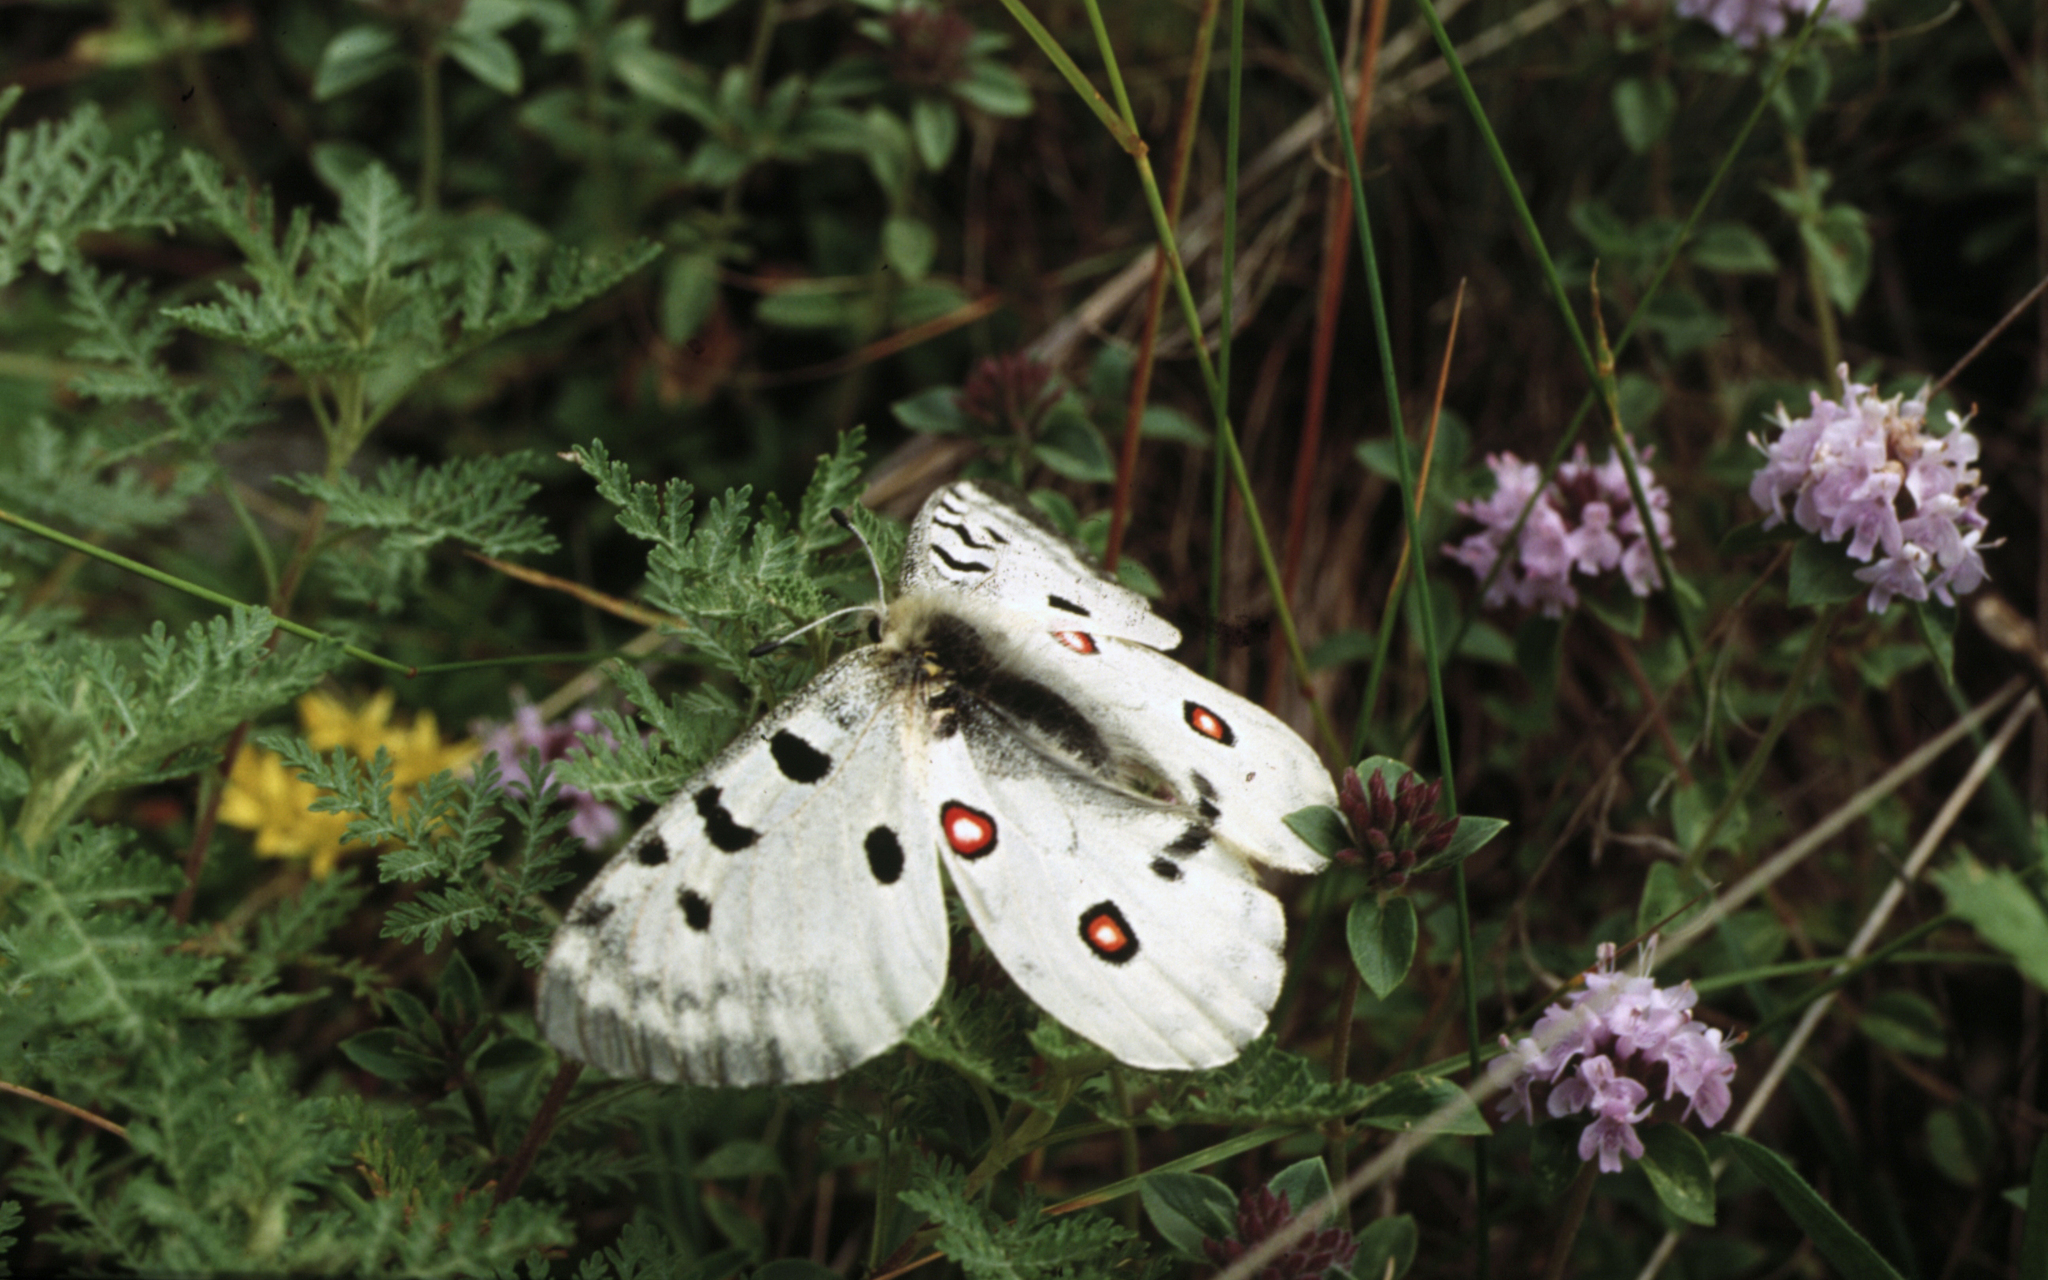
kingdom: Animalia
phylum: Arthropoda
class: Insecta
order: Lepidoptera
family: Papilionidae
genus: Parnassius
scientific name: Parnassius apollo
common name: Apollo
